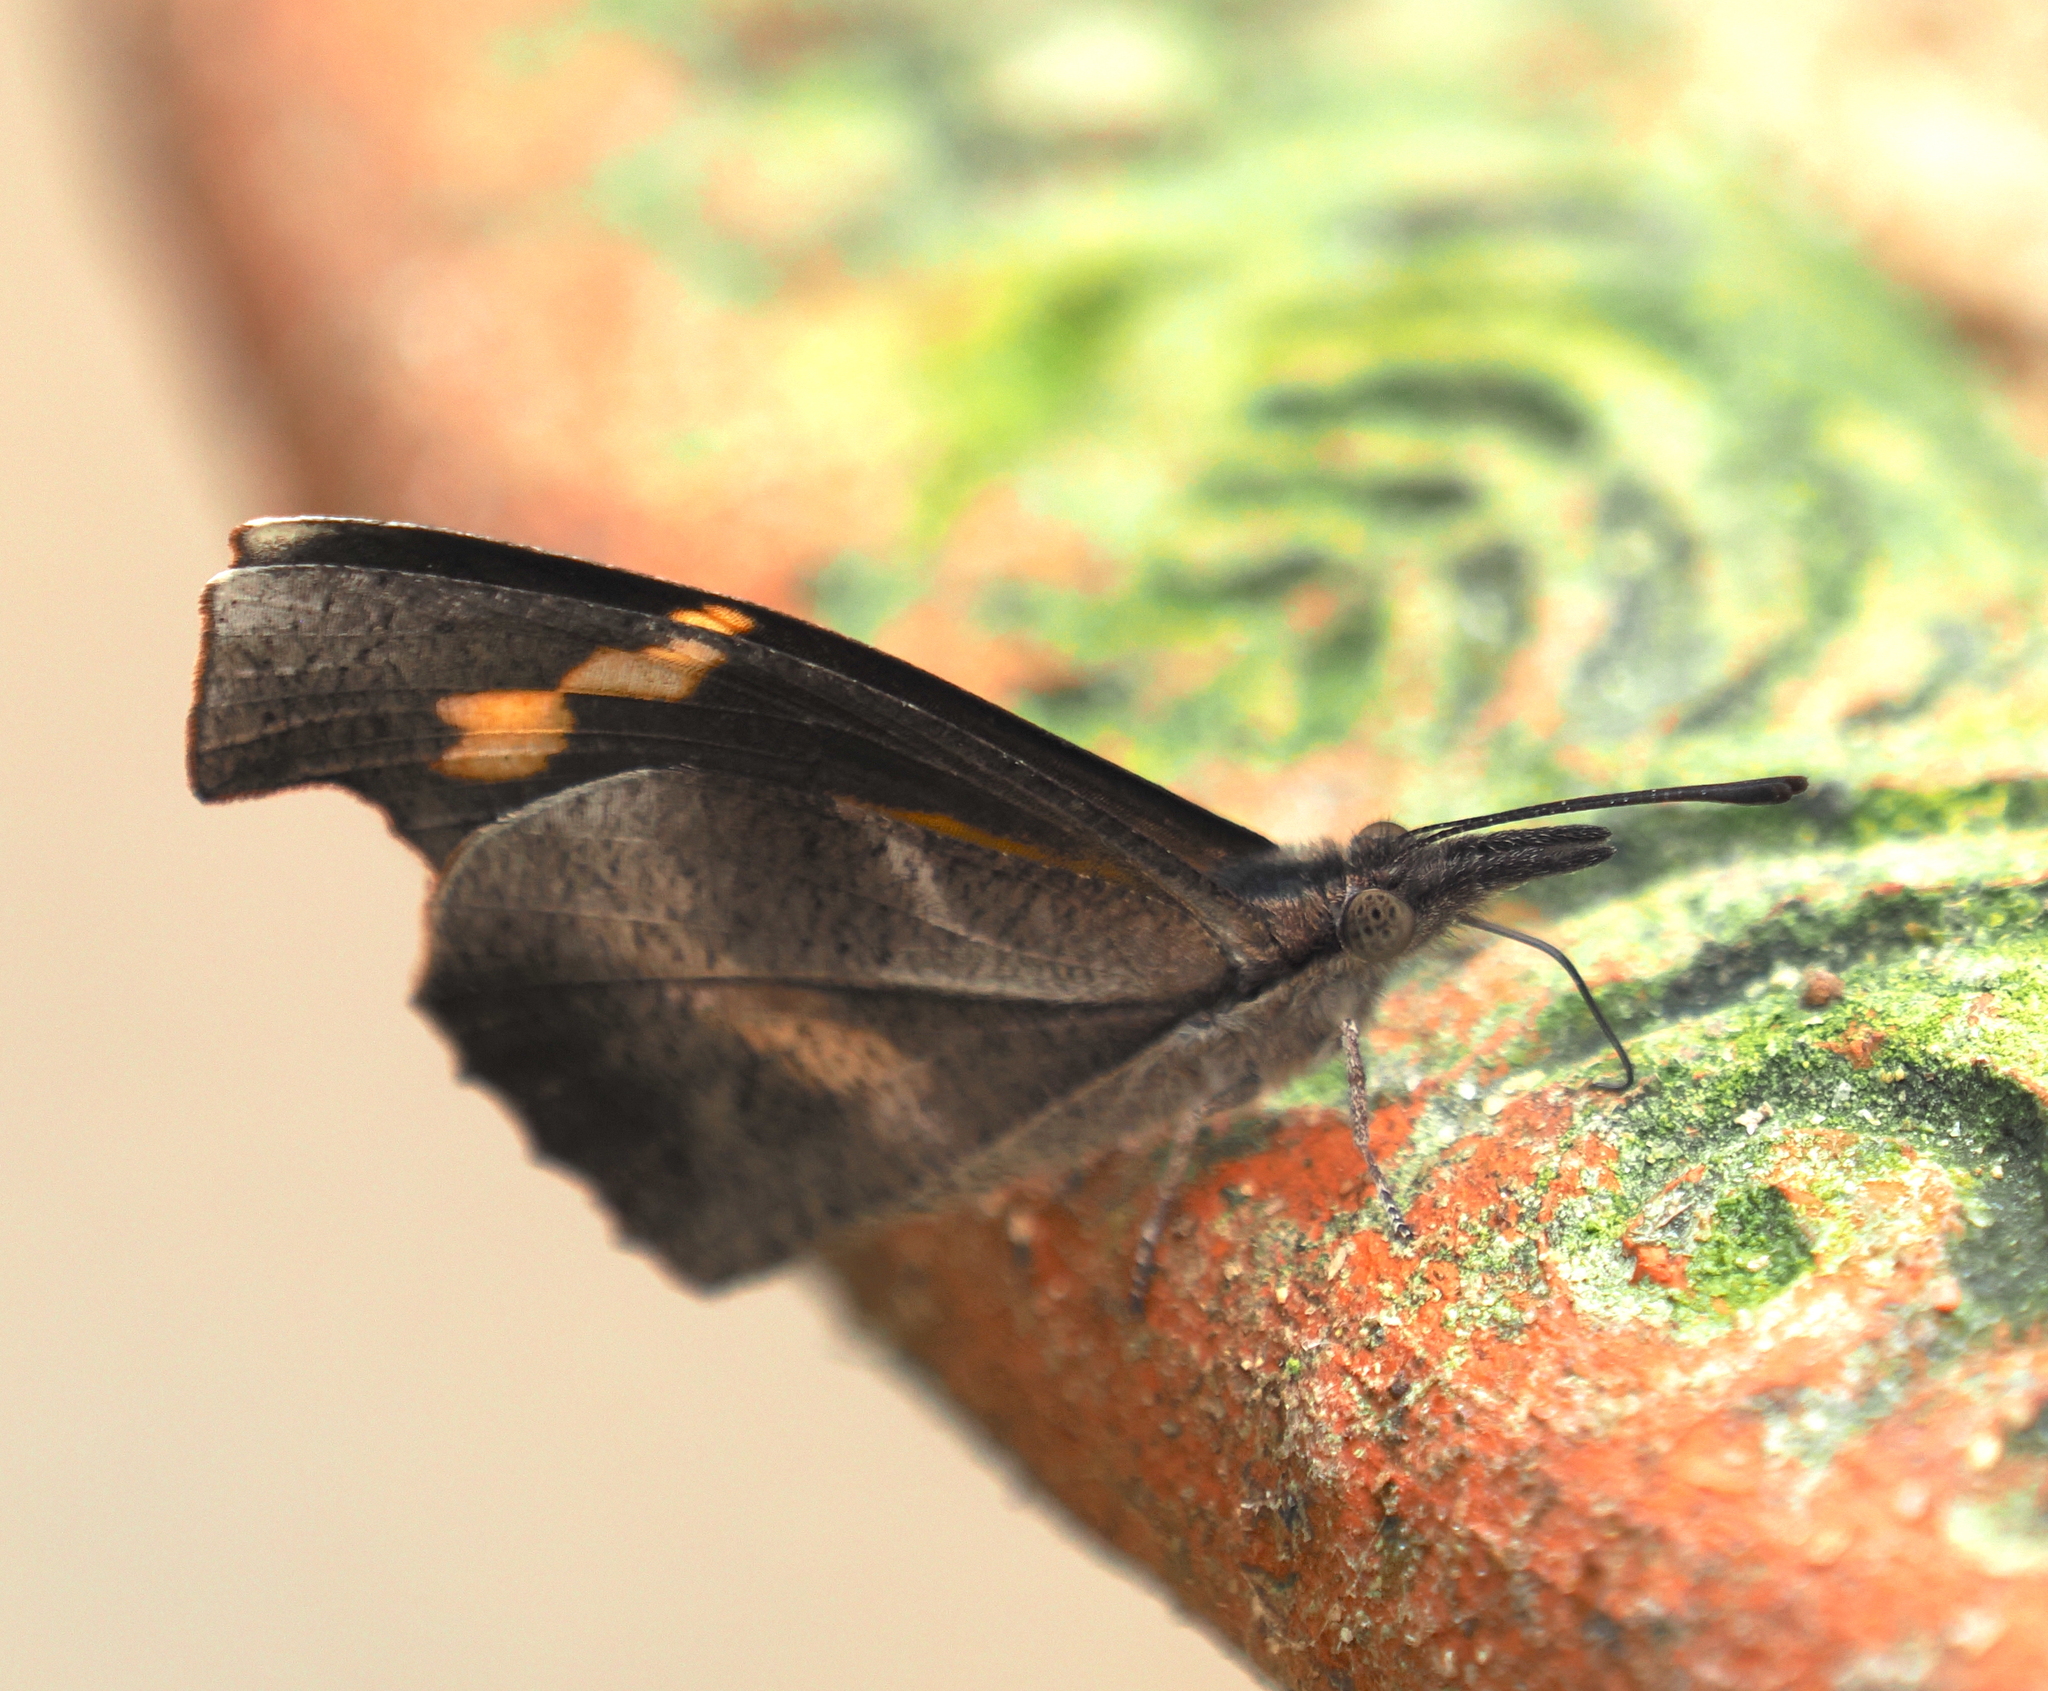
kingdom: Animalia
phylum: Arthropoda
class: Insecta
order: Lepidoptera
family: Nymphalidae
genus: Libythea
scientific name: Libythea myrrha
